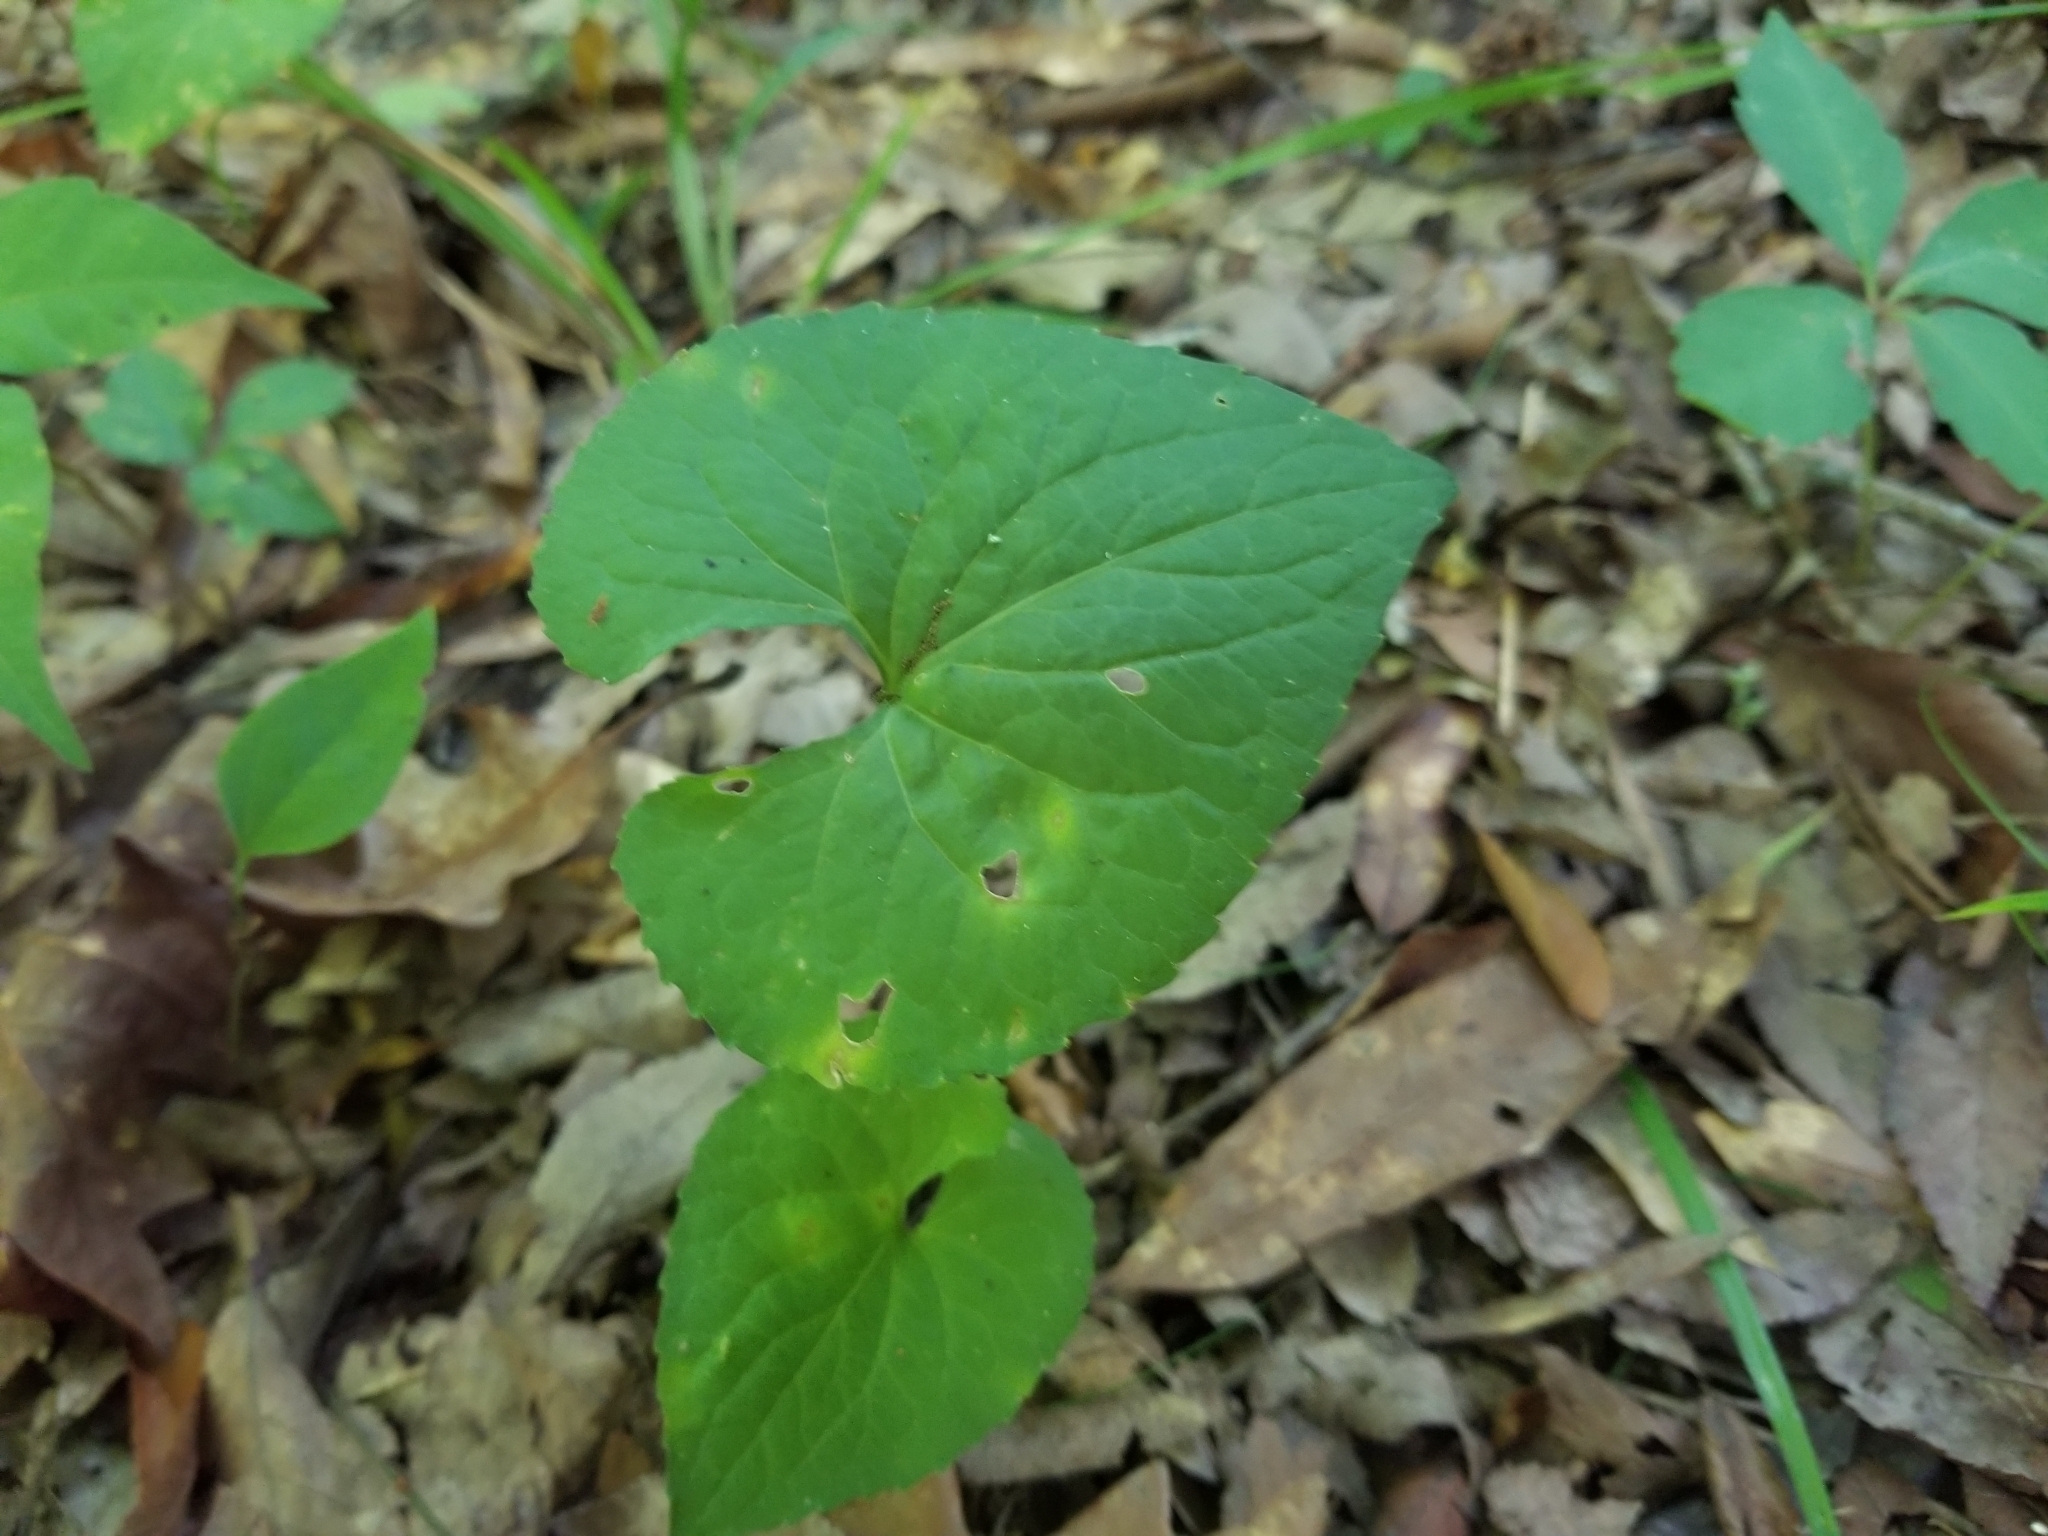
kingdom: Plantae
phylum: Tracheophyta
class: Magnoliopsida
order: Malpighiales
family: Violaceae
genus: Viola
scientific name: Viola sororia
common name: Dooryard violet
